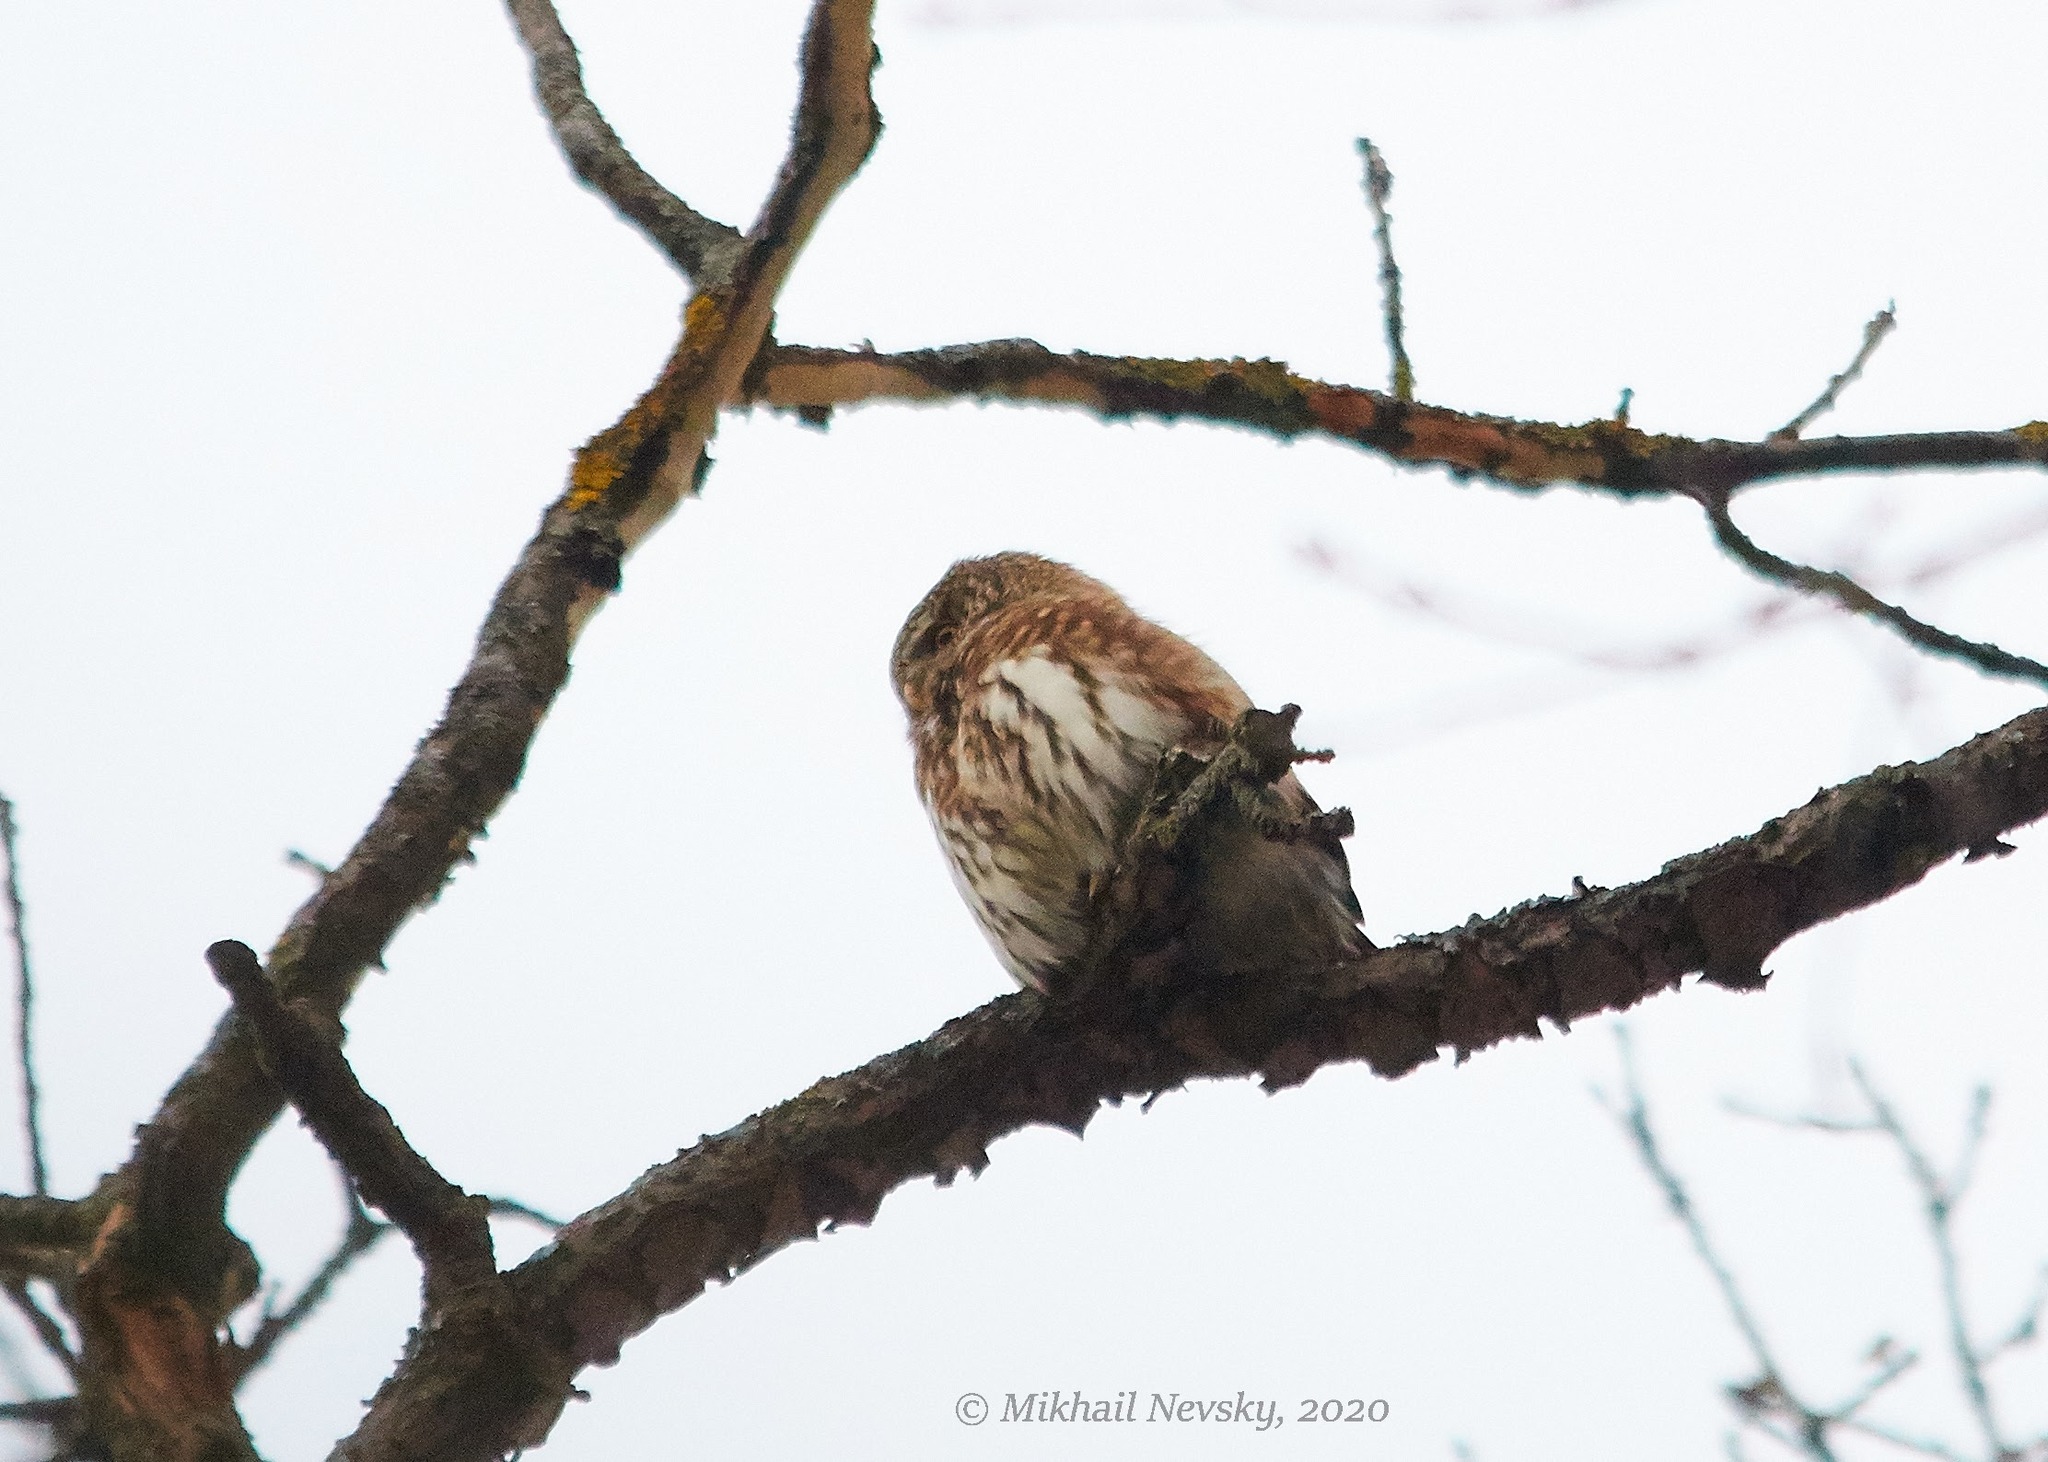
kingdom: Animalia
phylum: Chordata
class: Aves
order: Strigiformes
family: Strigidae
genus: Glaucidium
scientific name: Glaucidium passerinum
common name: Eurasian pygmy owl
